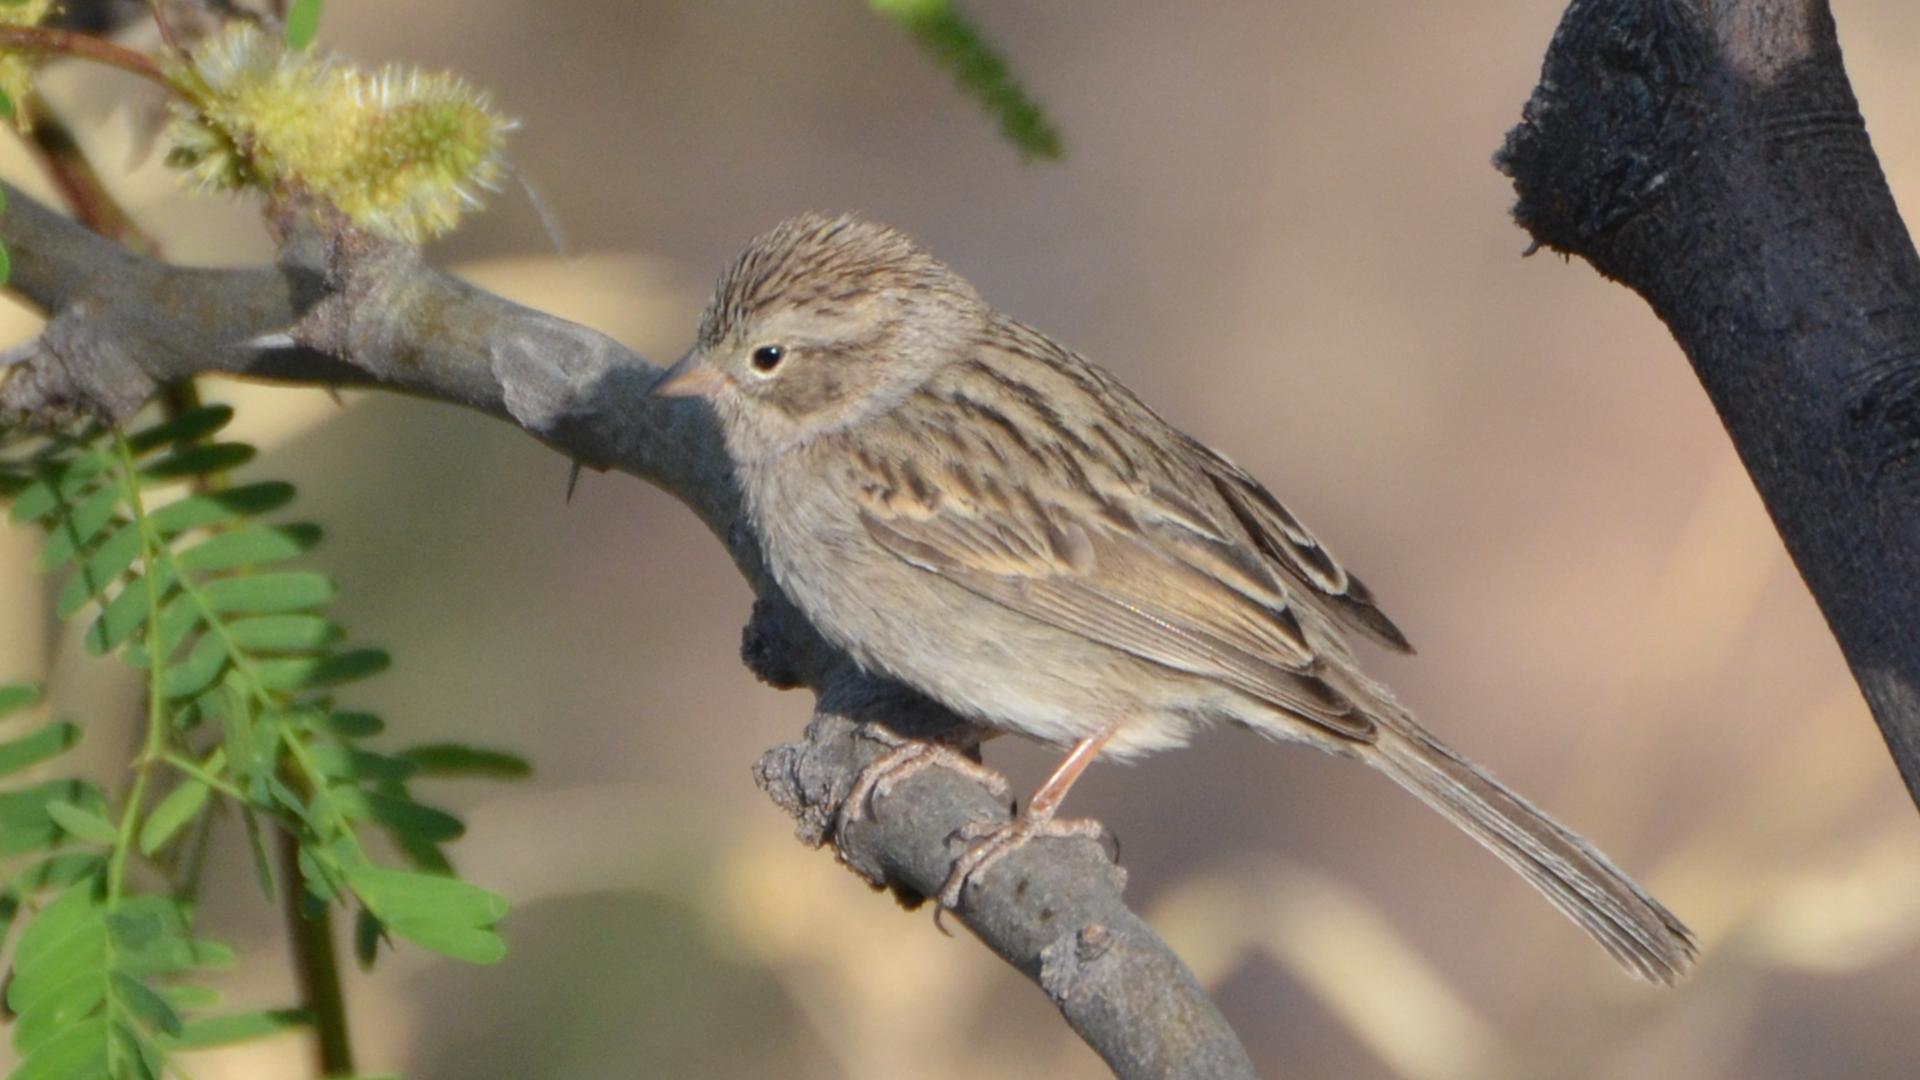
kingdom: Animalia
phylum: Chordata
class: Aves
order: Passeriformes
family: Passerellidae
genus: Spizella
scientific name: Spizella breweri
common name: Brewer's sparrow
